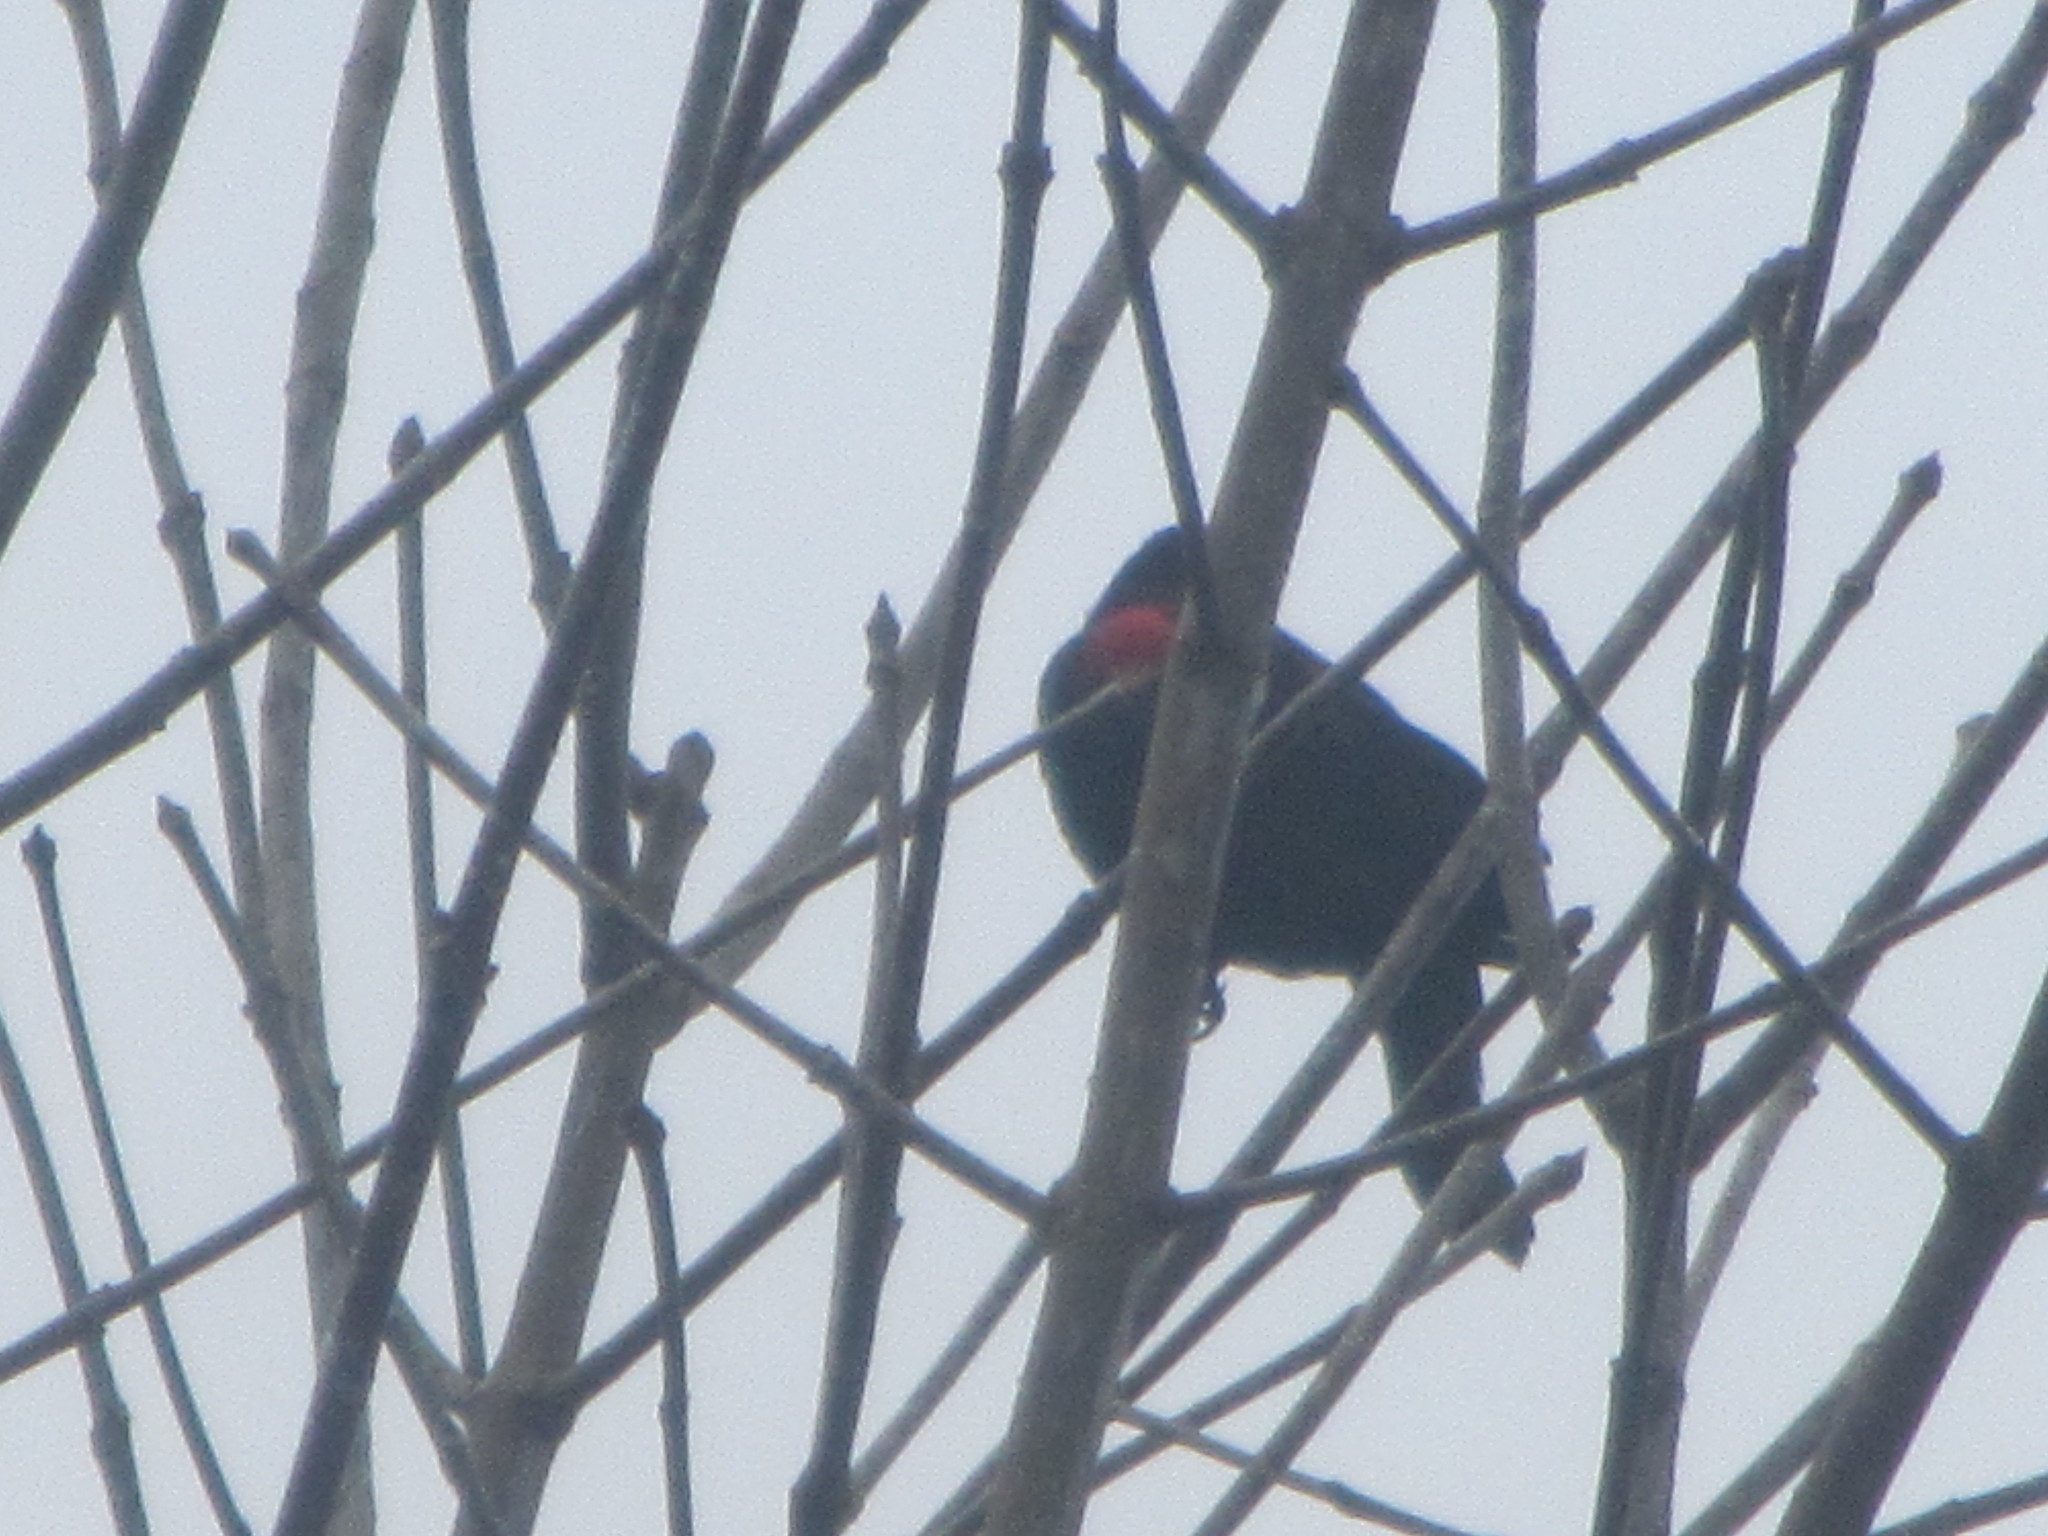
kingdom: Animalia
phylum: Chordata
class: Aves
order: Passeriformes
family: Icteridae
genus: Agelaius
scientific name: Agelaius phoeniceus
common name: Red-winged blackbird
